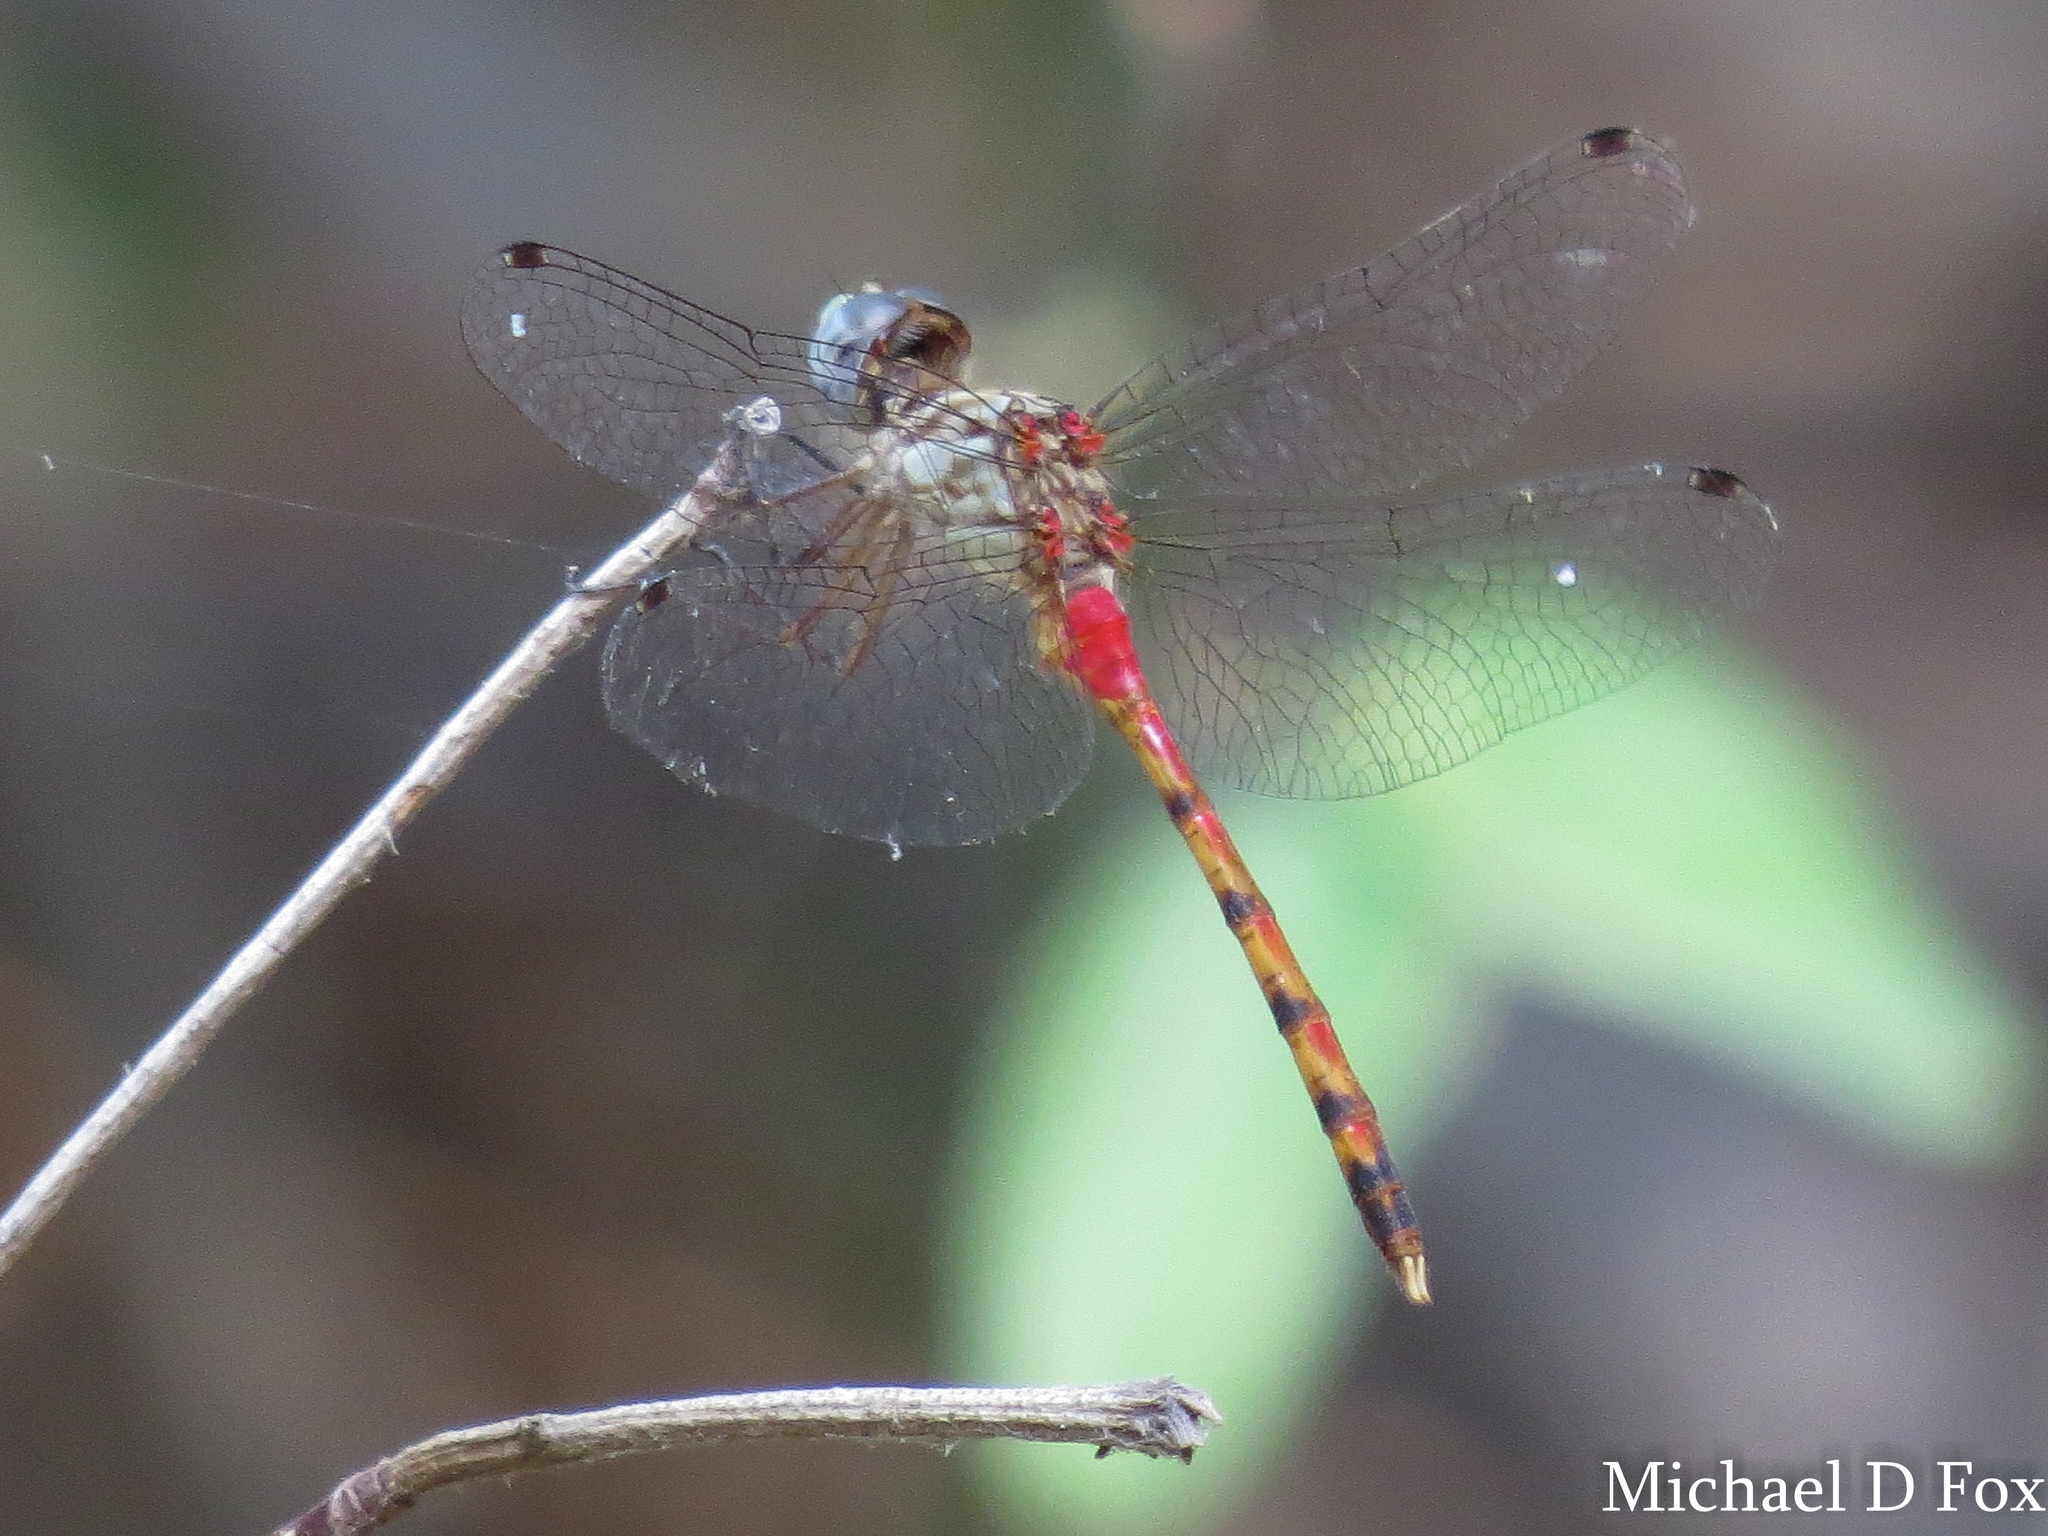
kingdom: Animalia
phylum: Arthropoda
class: Insecta
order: Odonata
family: Libellulidae
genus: Sympetrum
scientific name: Sympetrum ambiguum
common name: Blue-faced meadowhawk
